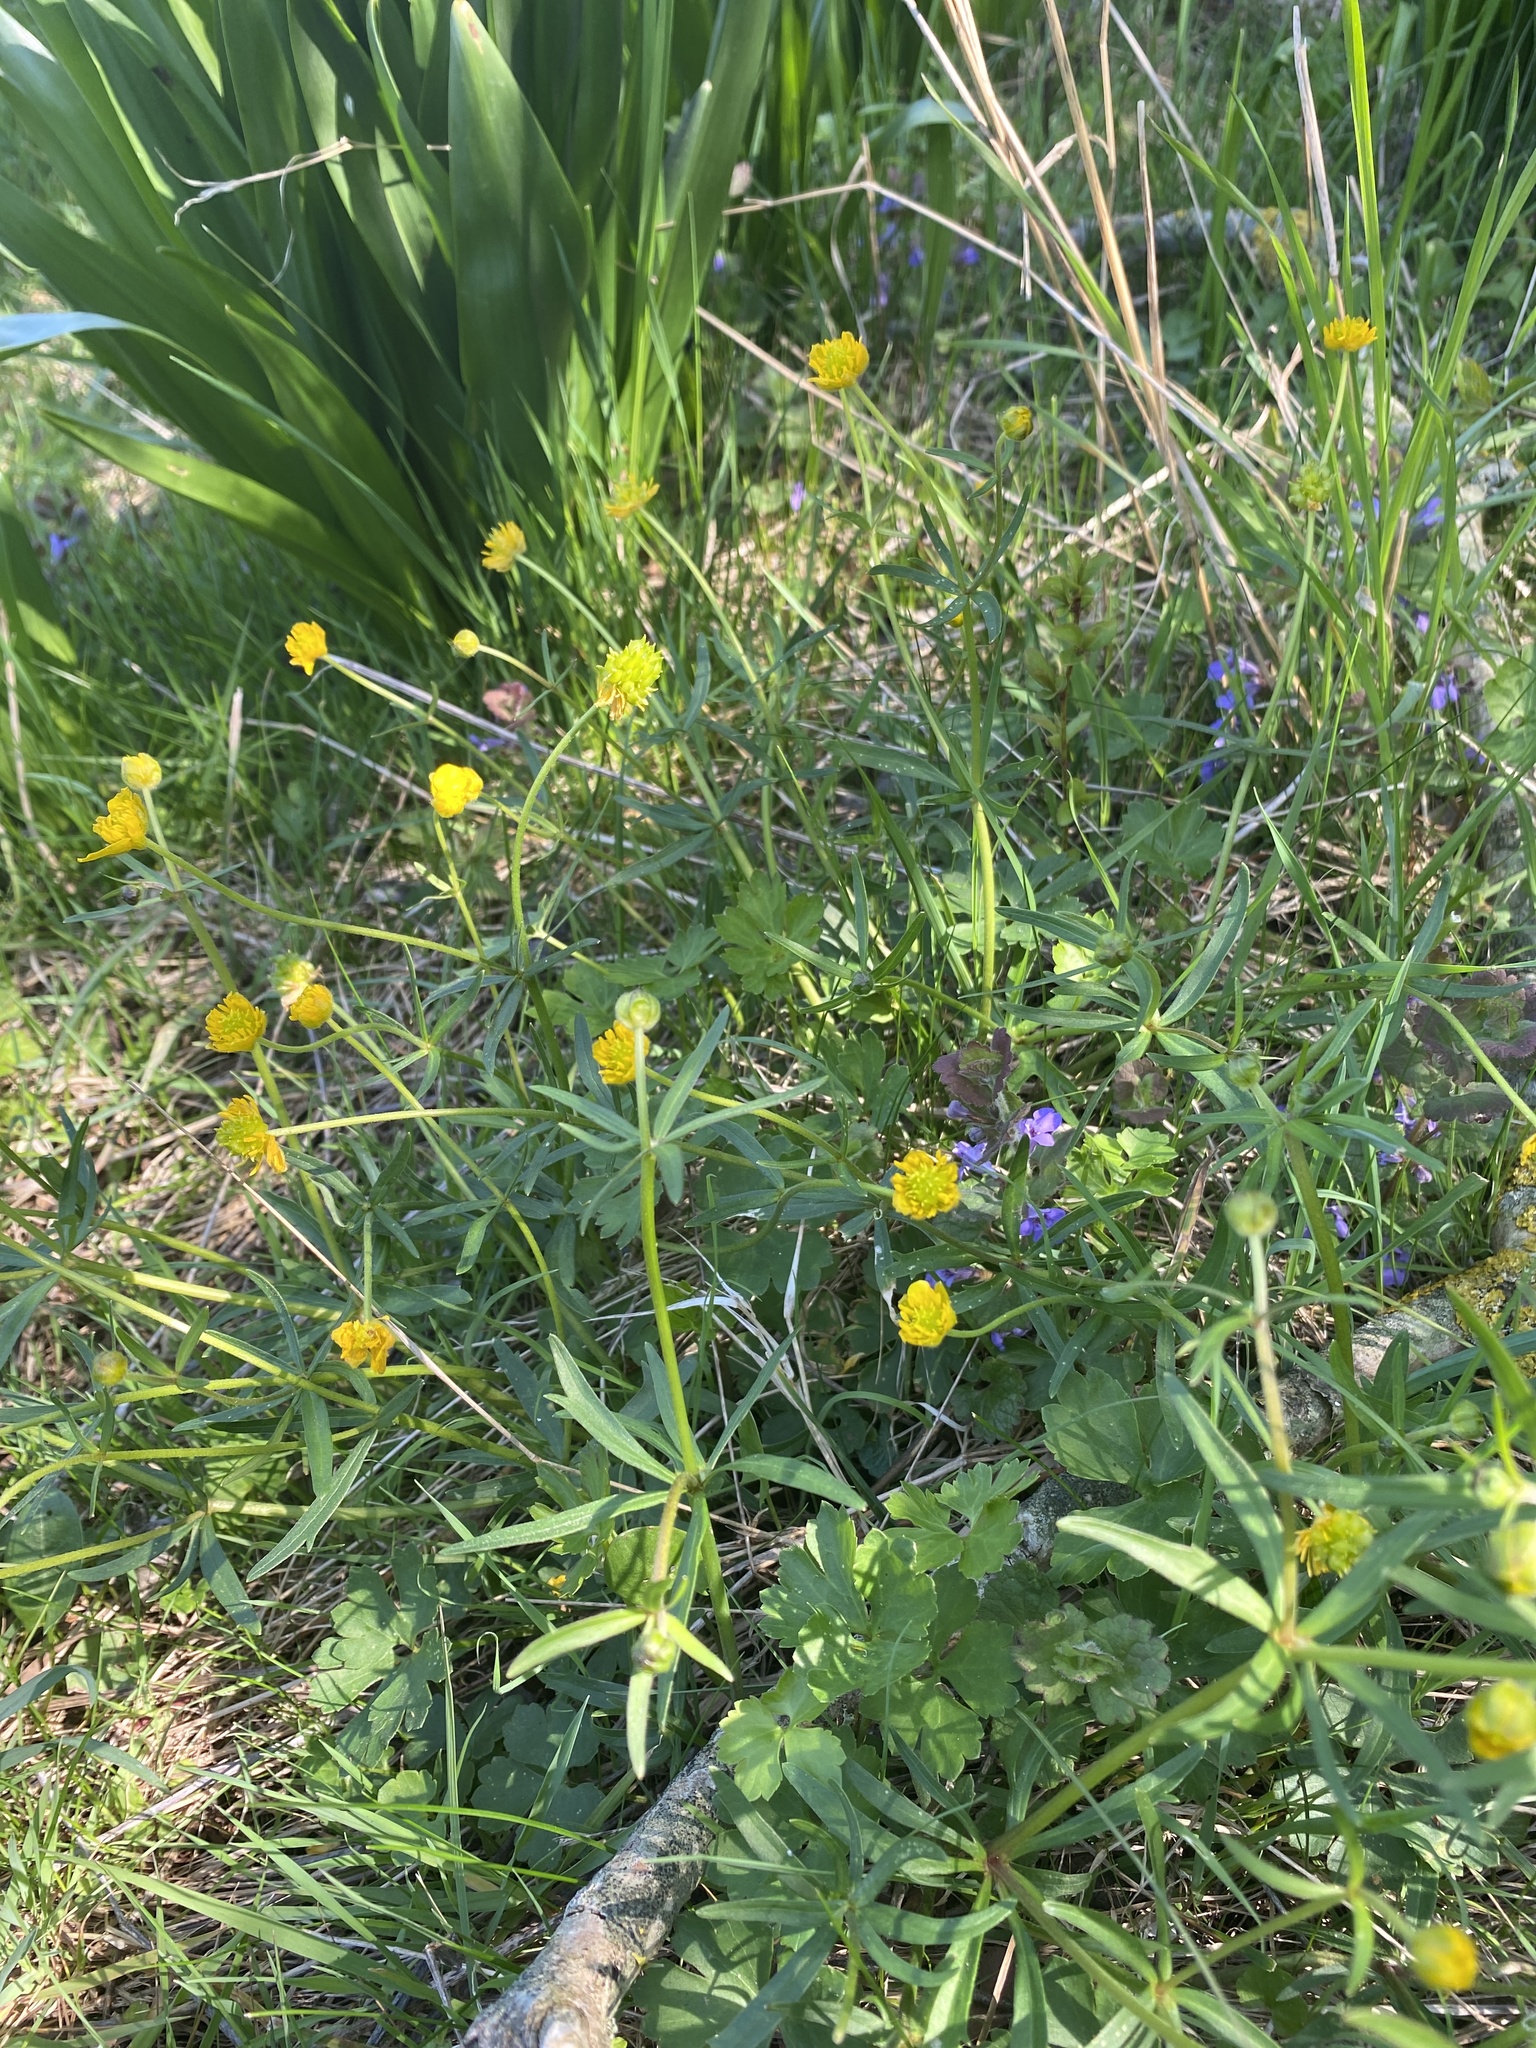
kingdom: Plantae
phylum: Tracheophyta
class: Magnoliopsida
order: Ranunculales
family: Ranunculaceae
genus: Ranunculus
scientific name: Ranunculus auricomus
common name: Goldilocks buttercup
